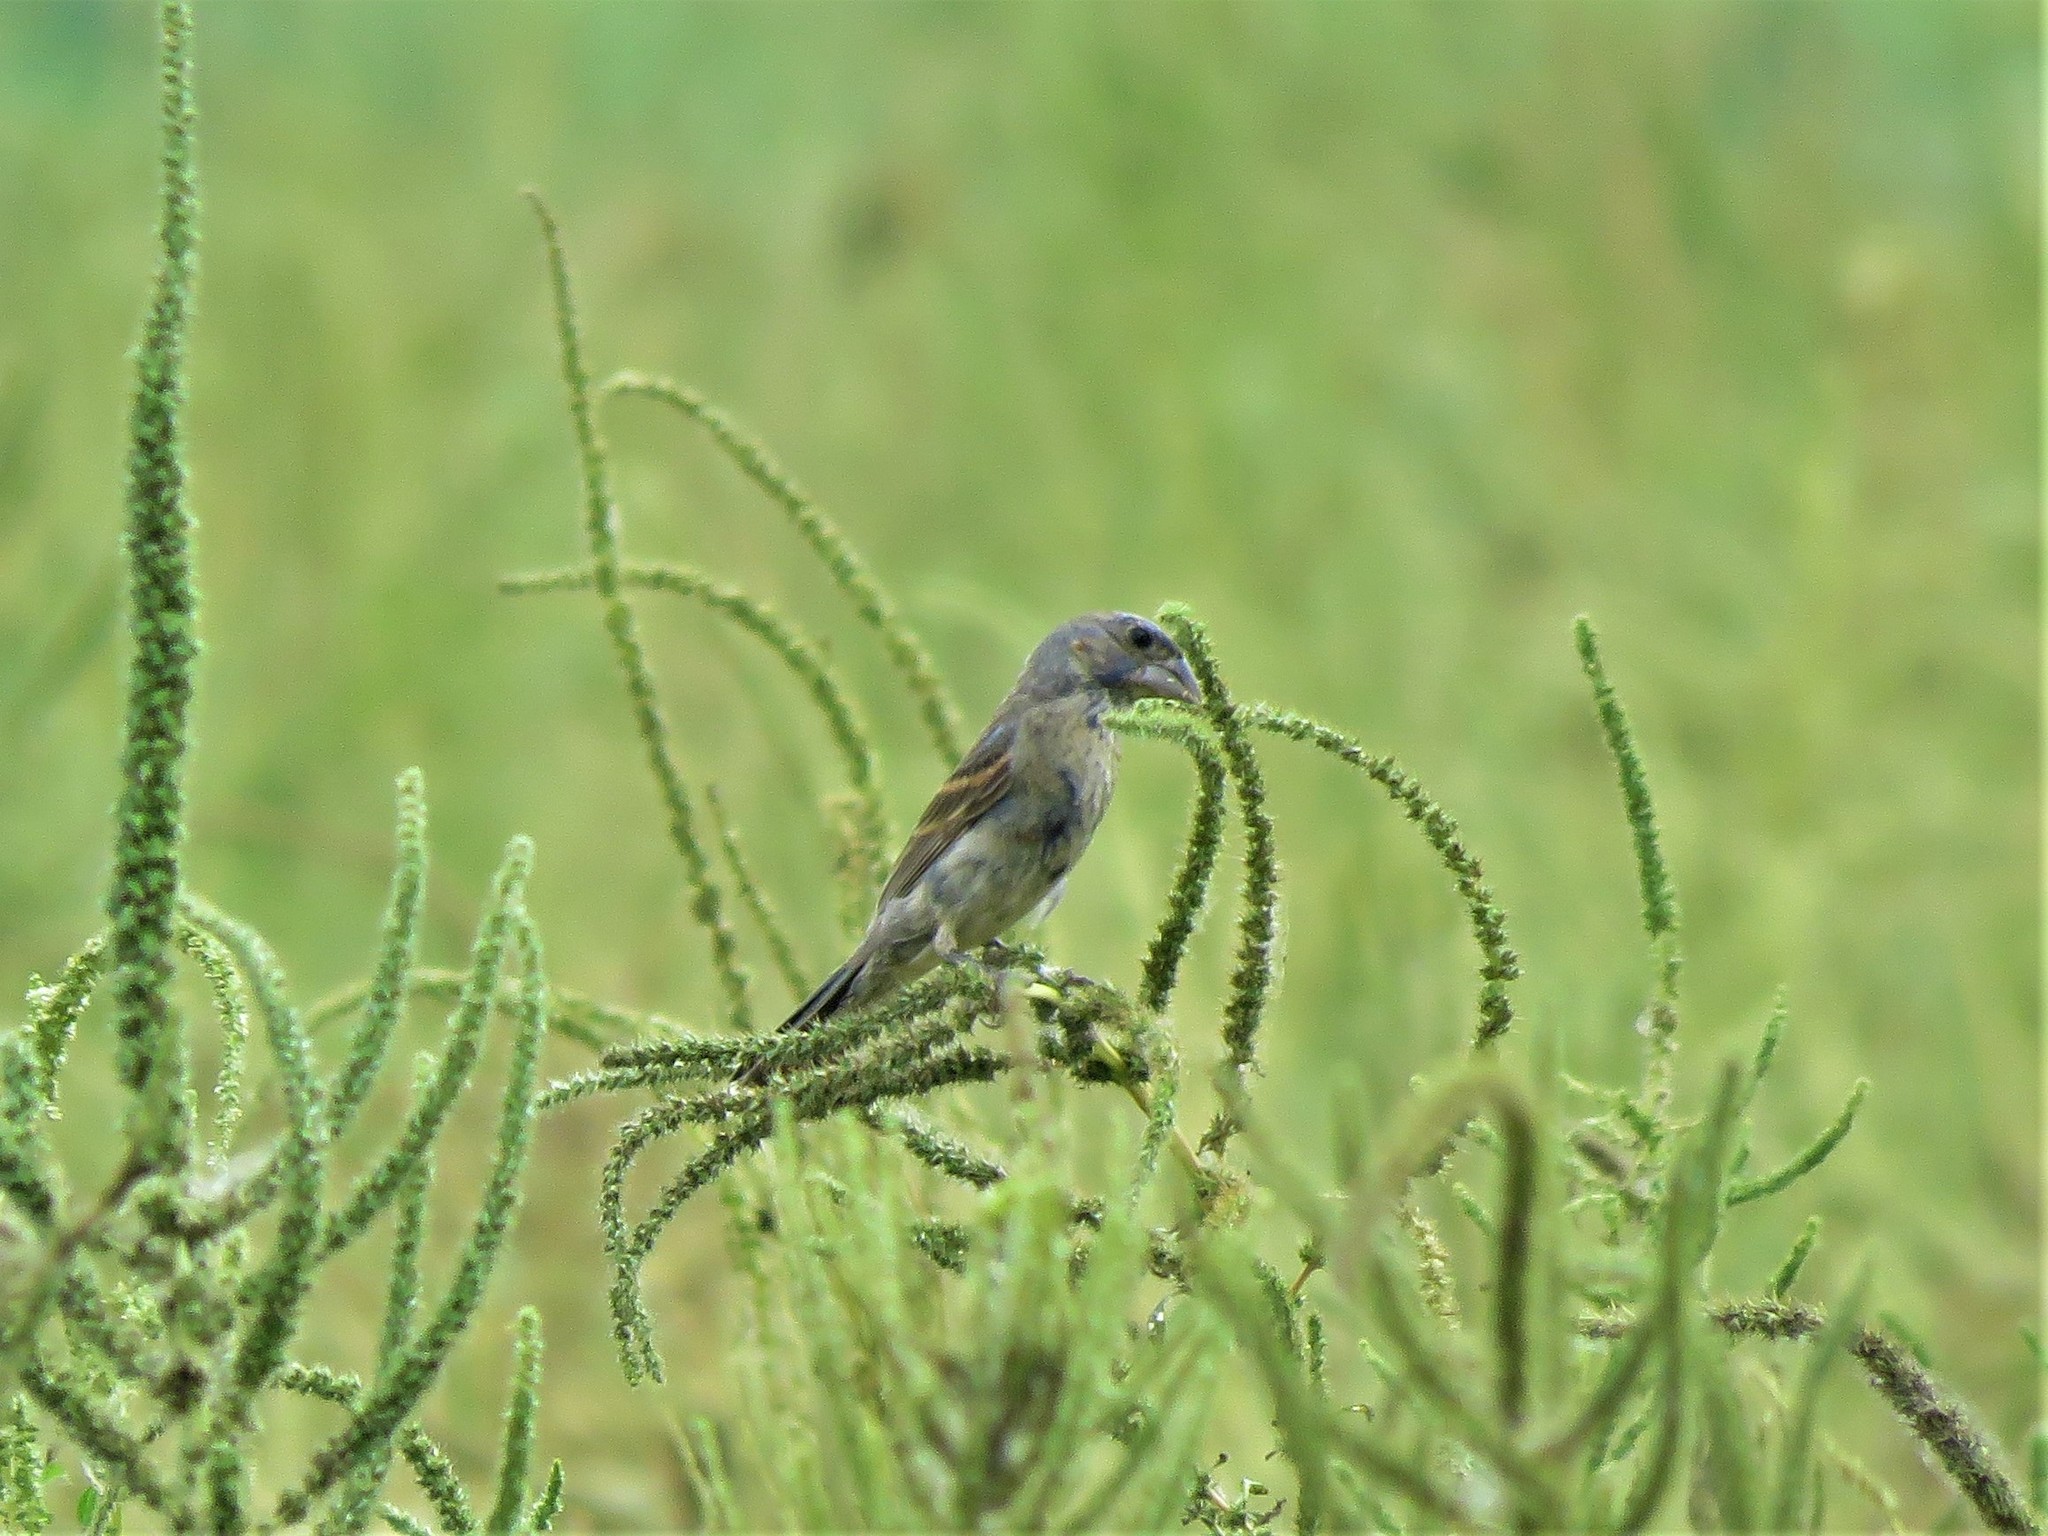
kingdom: Animalia
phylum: Chordata
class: Aves
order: Passeriformes
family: Cardinalidae
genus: Passerina
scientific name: Passerina caerulea
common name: Blue grosbeak
